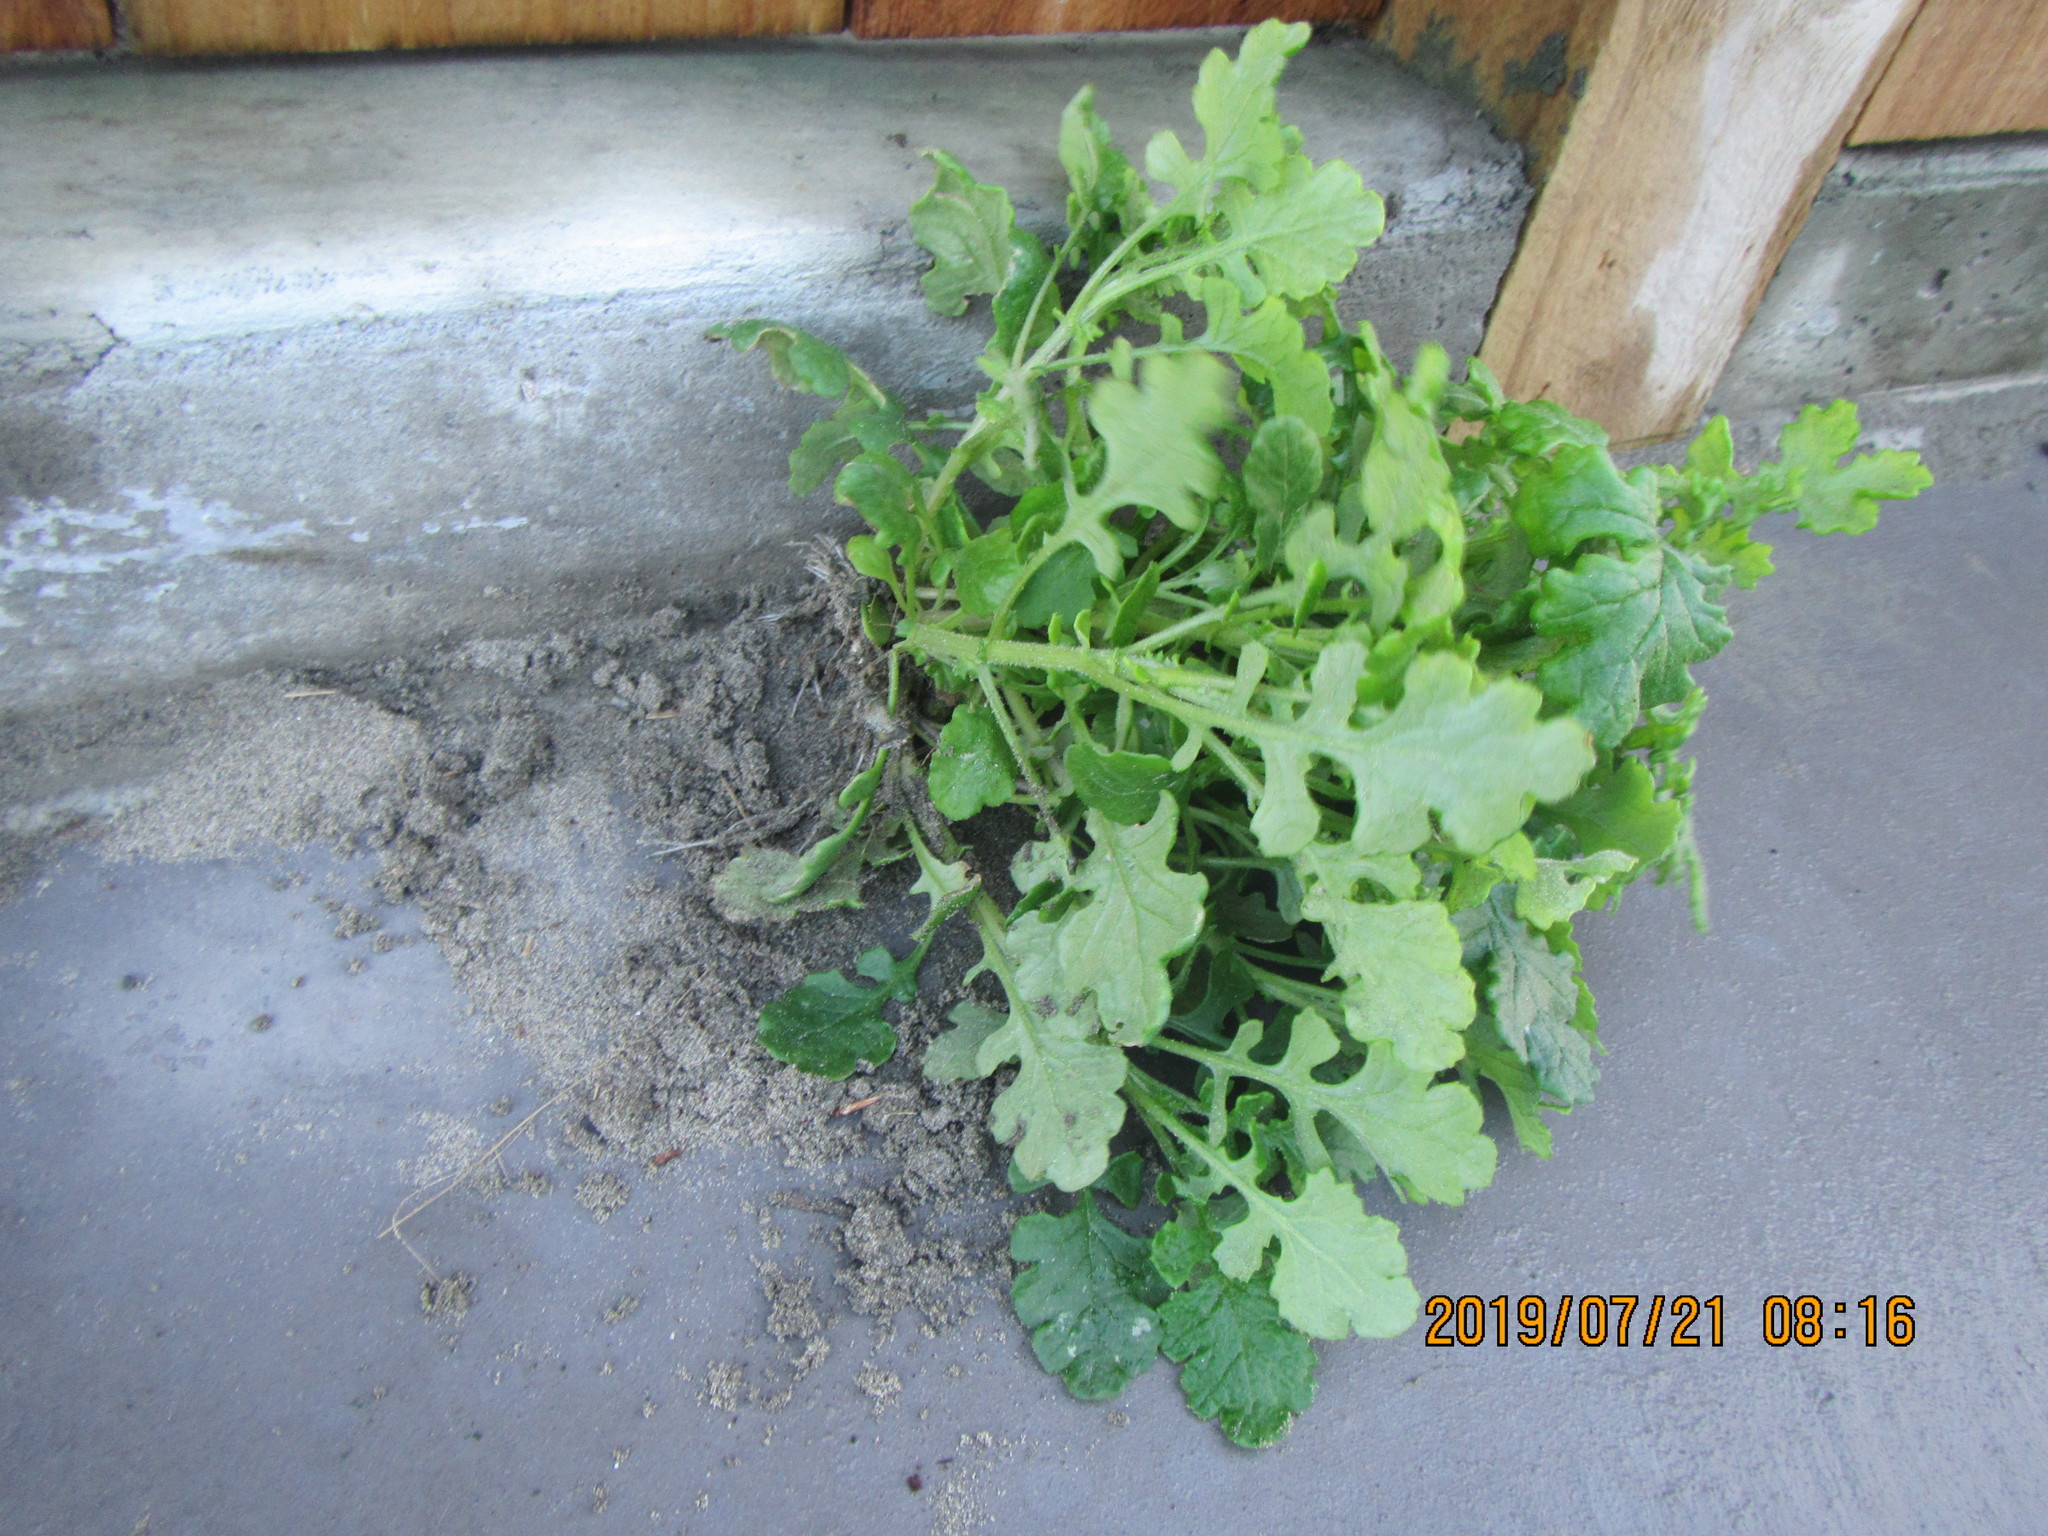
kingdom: Plantae
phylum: Tracheophyta
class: Magnoliopsida
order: Asterales
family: Asteraceae
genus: Senecio
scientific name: Senecio elegans
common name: Purple groundsel
